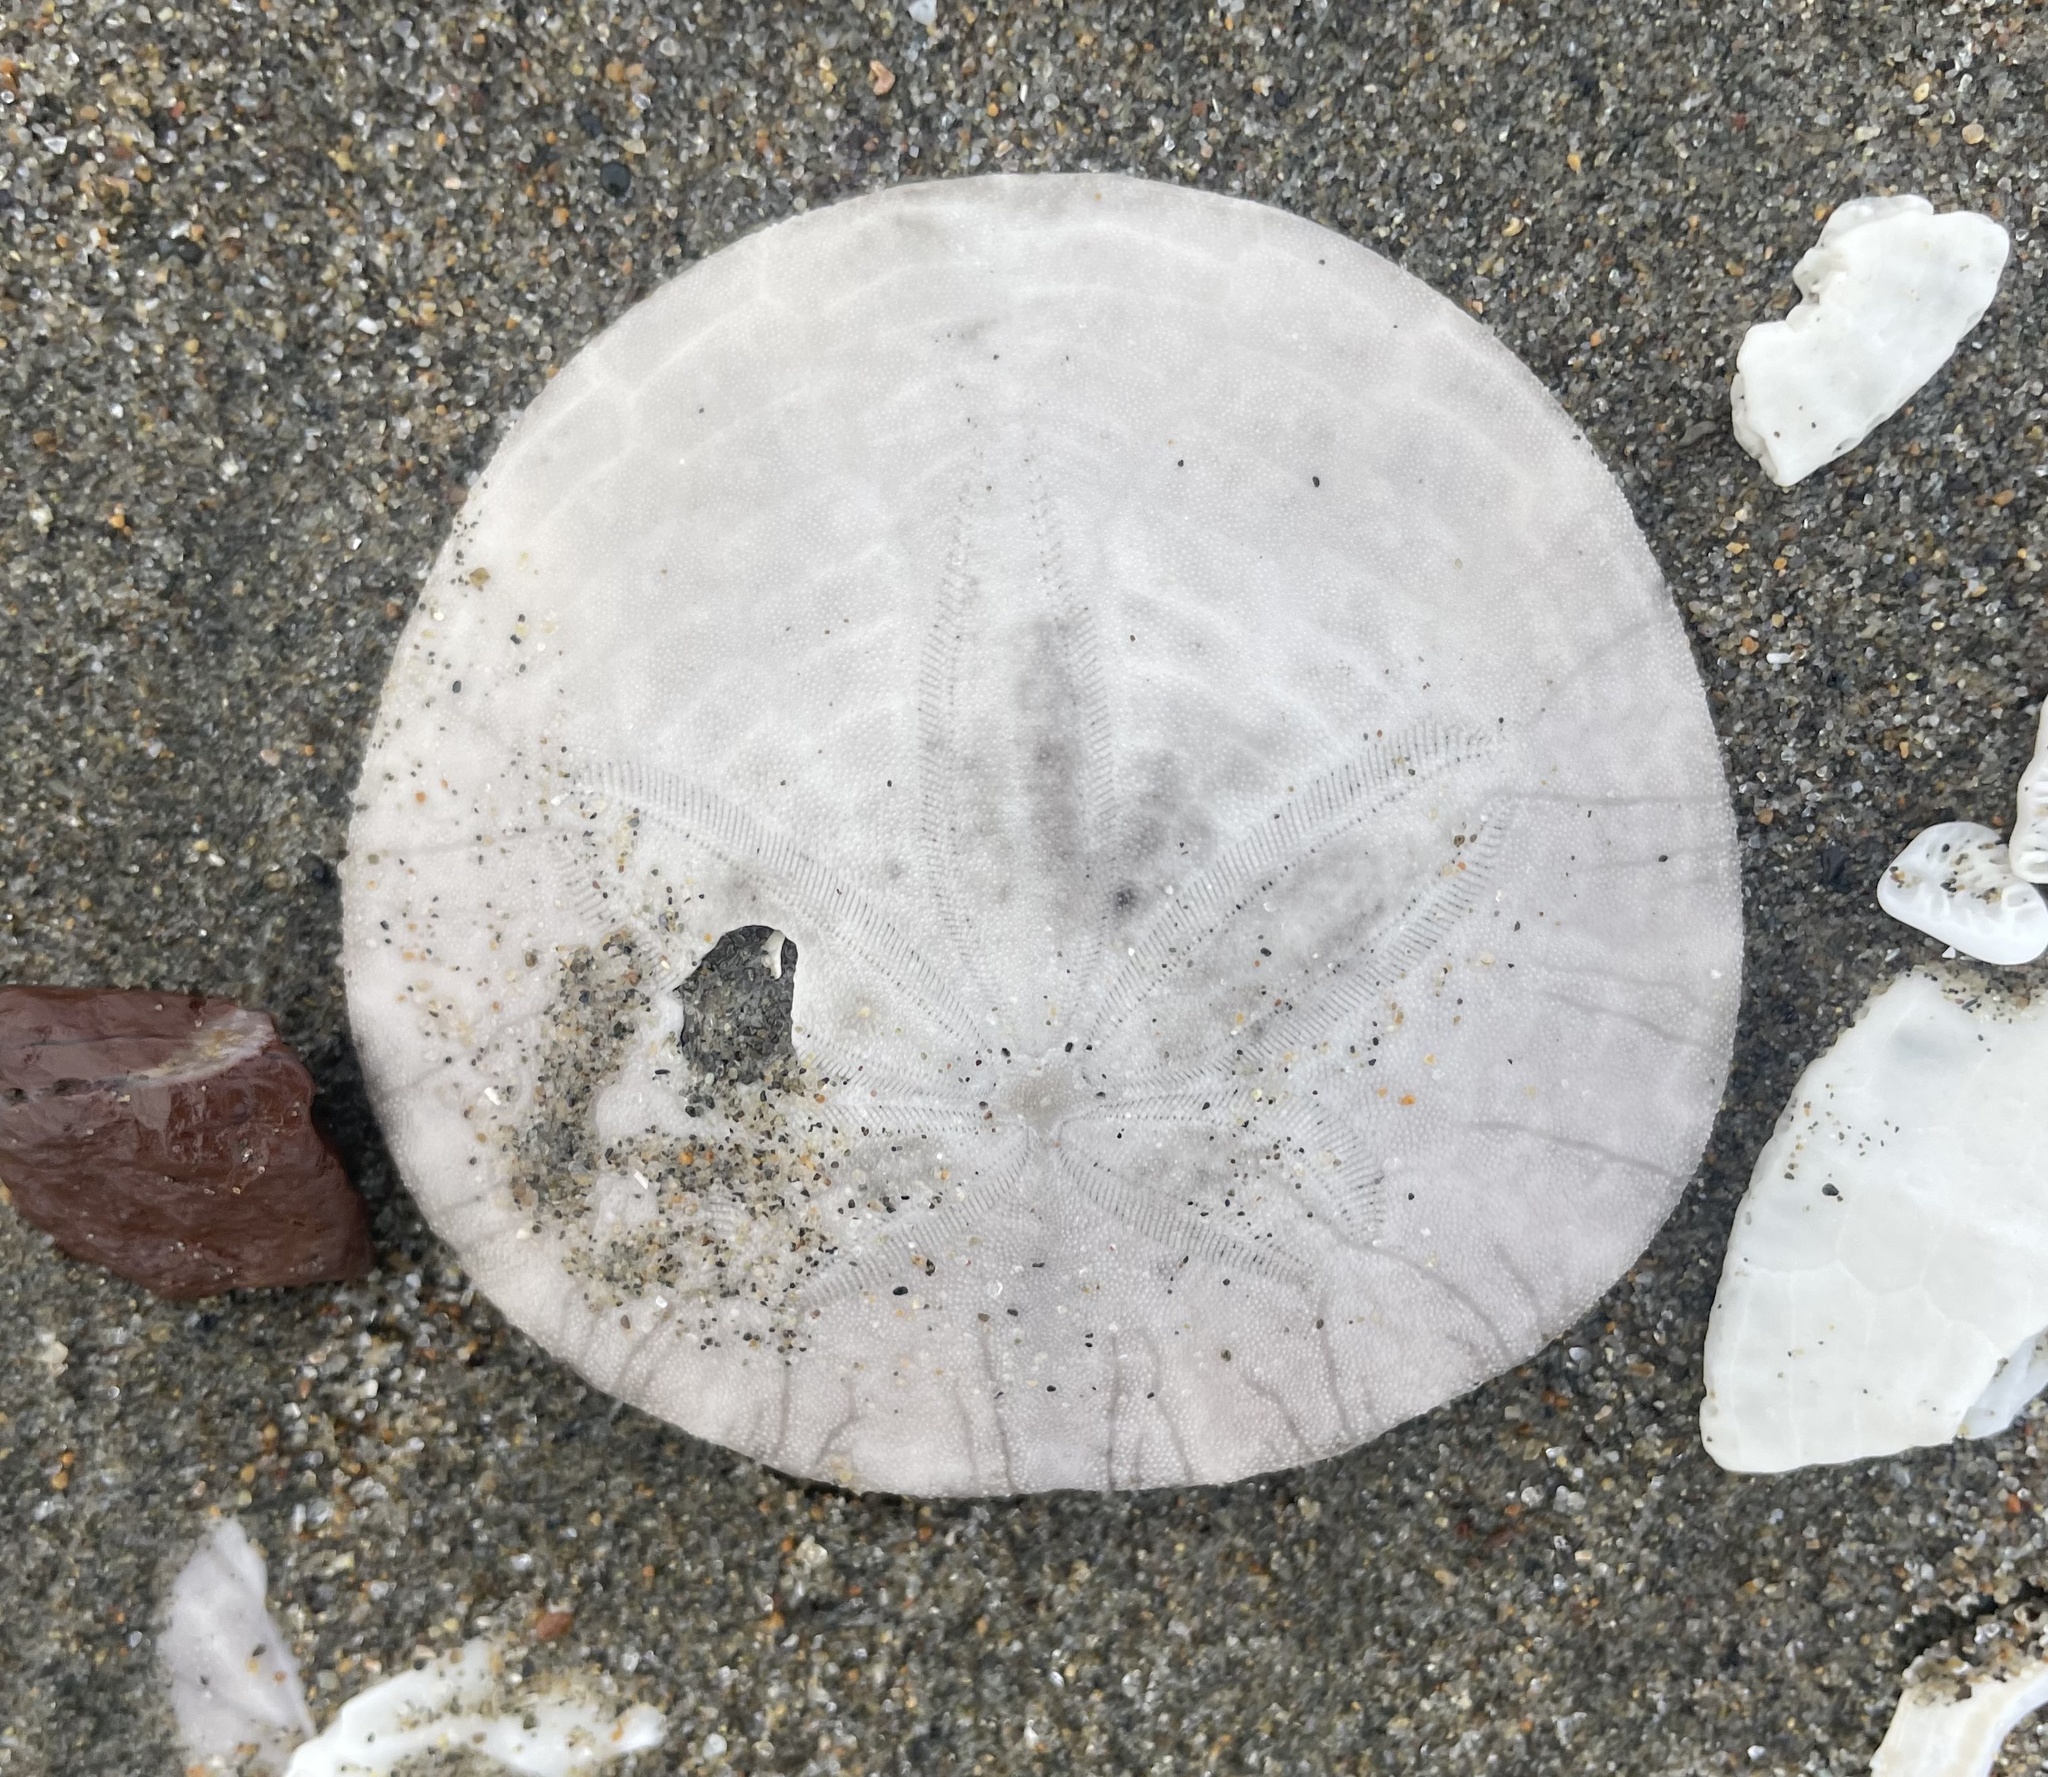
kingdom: Animalia
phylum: Echinodermata
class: Echinoidea
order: Echinolampadacea
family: Dendrasteridae
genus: Dendraster
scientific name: Dendraster excentricus
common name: Eccentric sand dollar sea urchin
